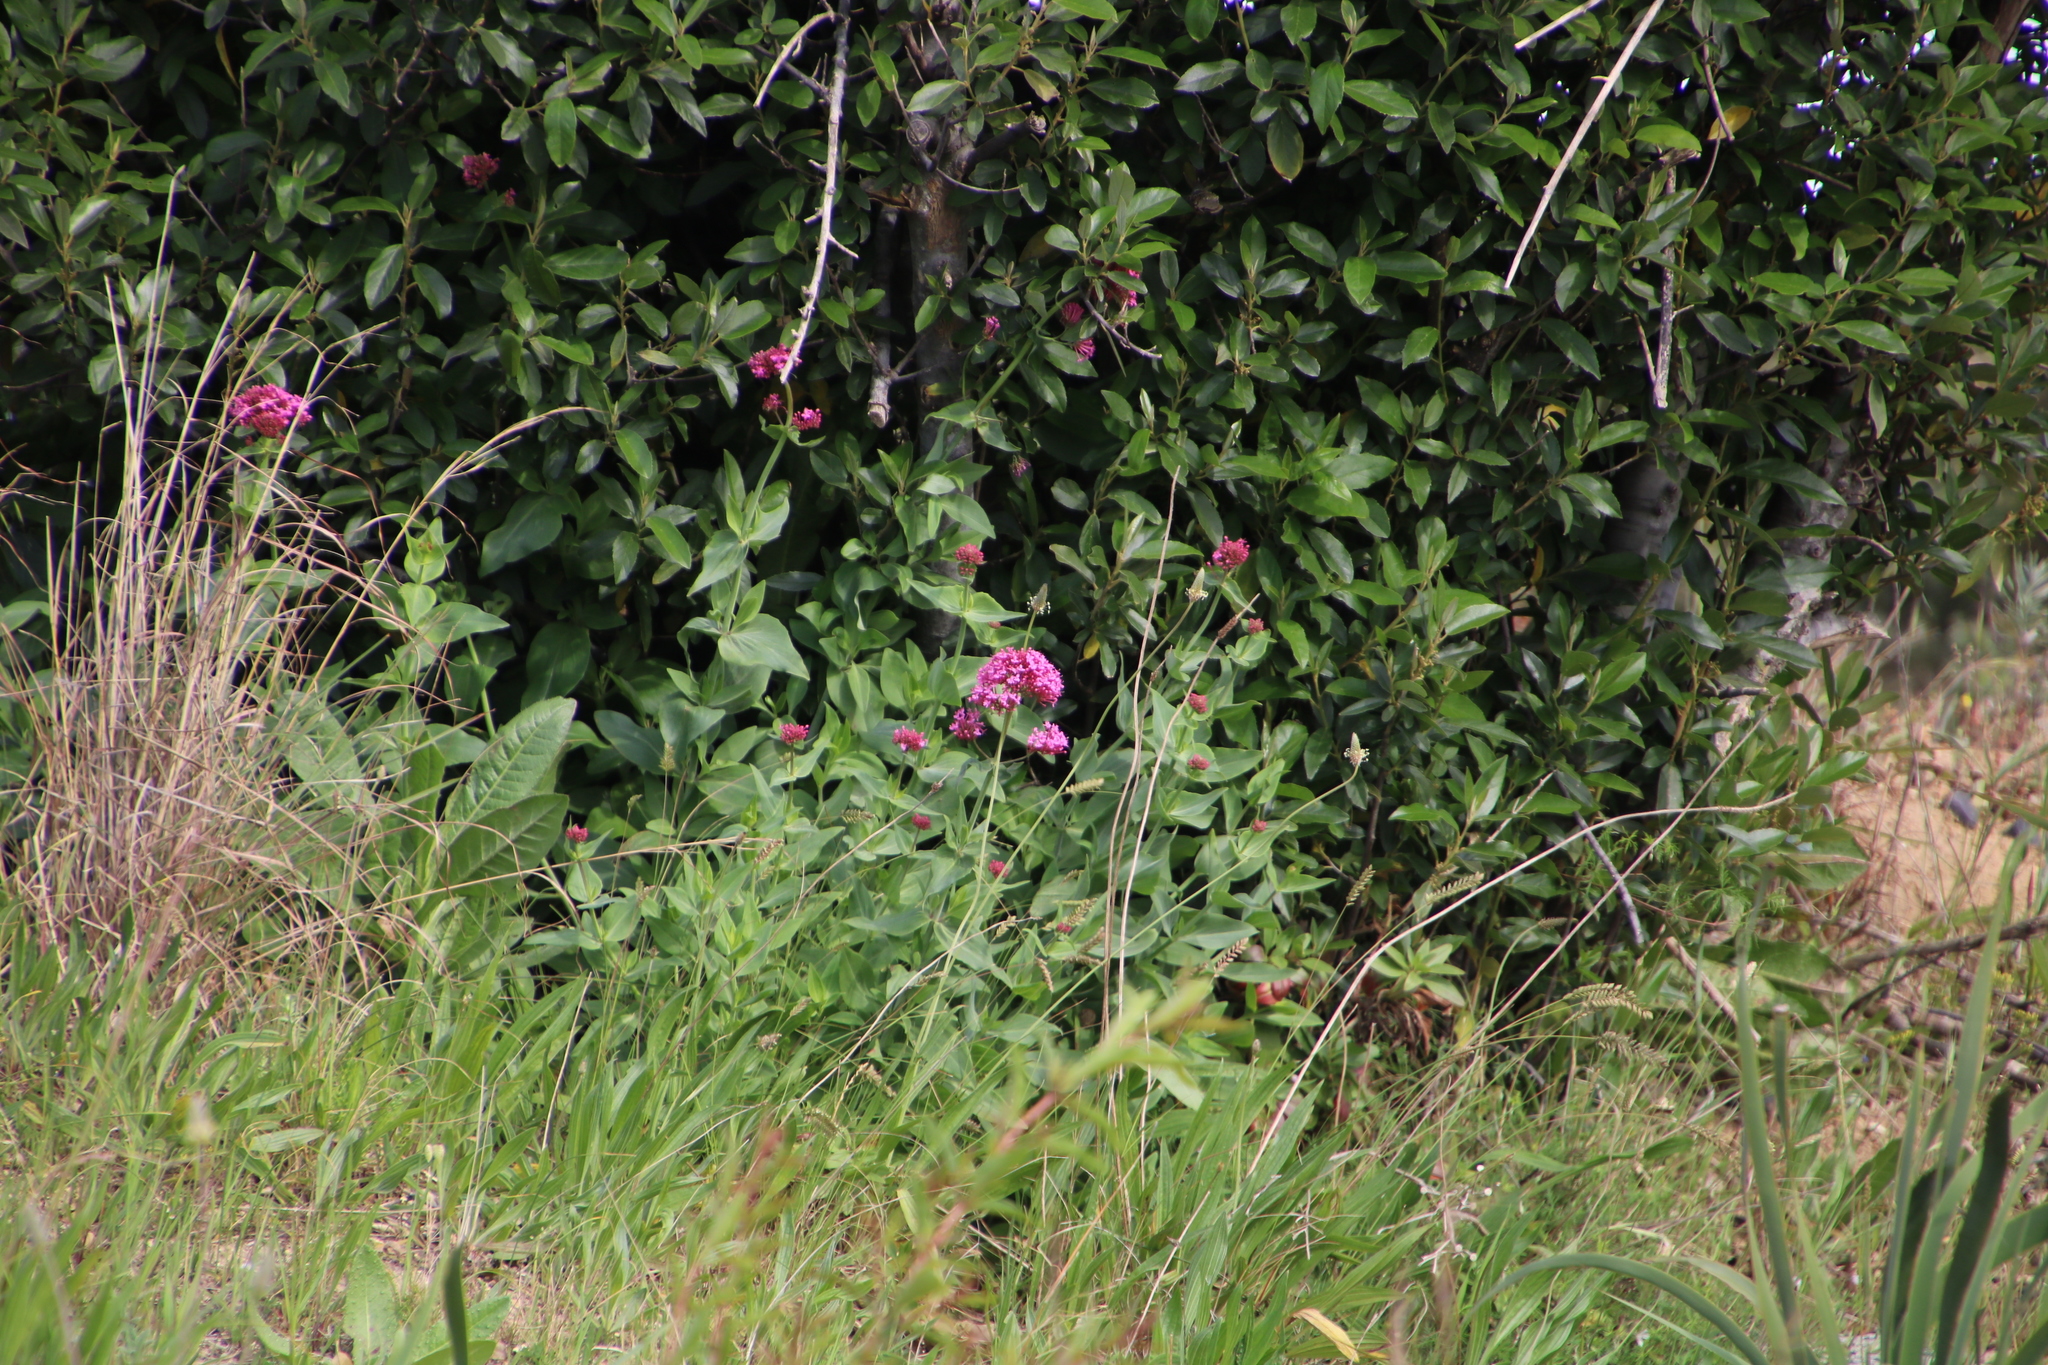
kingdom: Plantae
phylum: Tracheophyta
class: Magnoliopsida
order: Dipsacales
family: Caprifoliaceae
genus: Centranthus
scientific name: Centranthus ruber
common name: Red valerian
